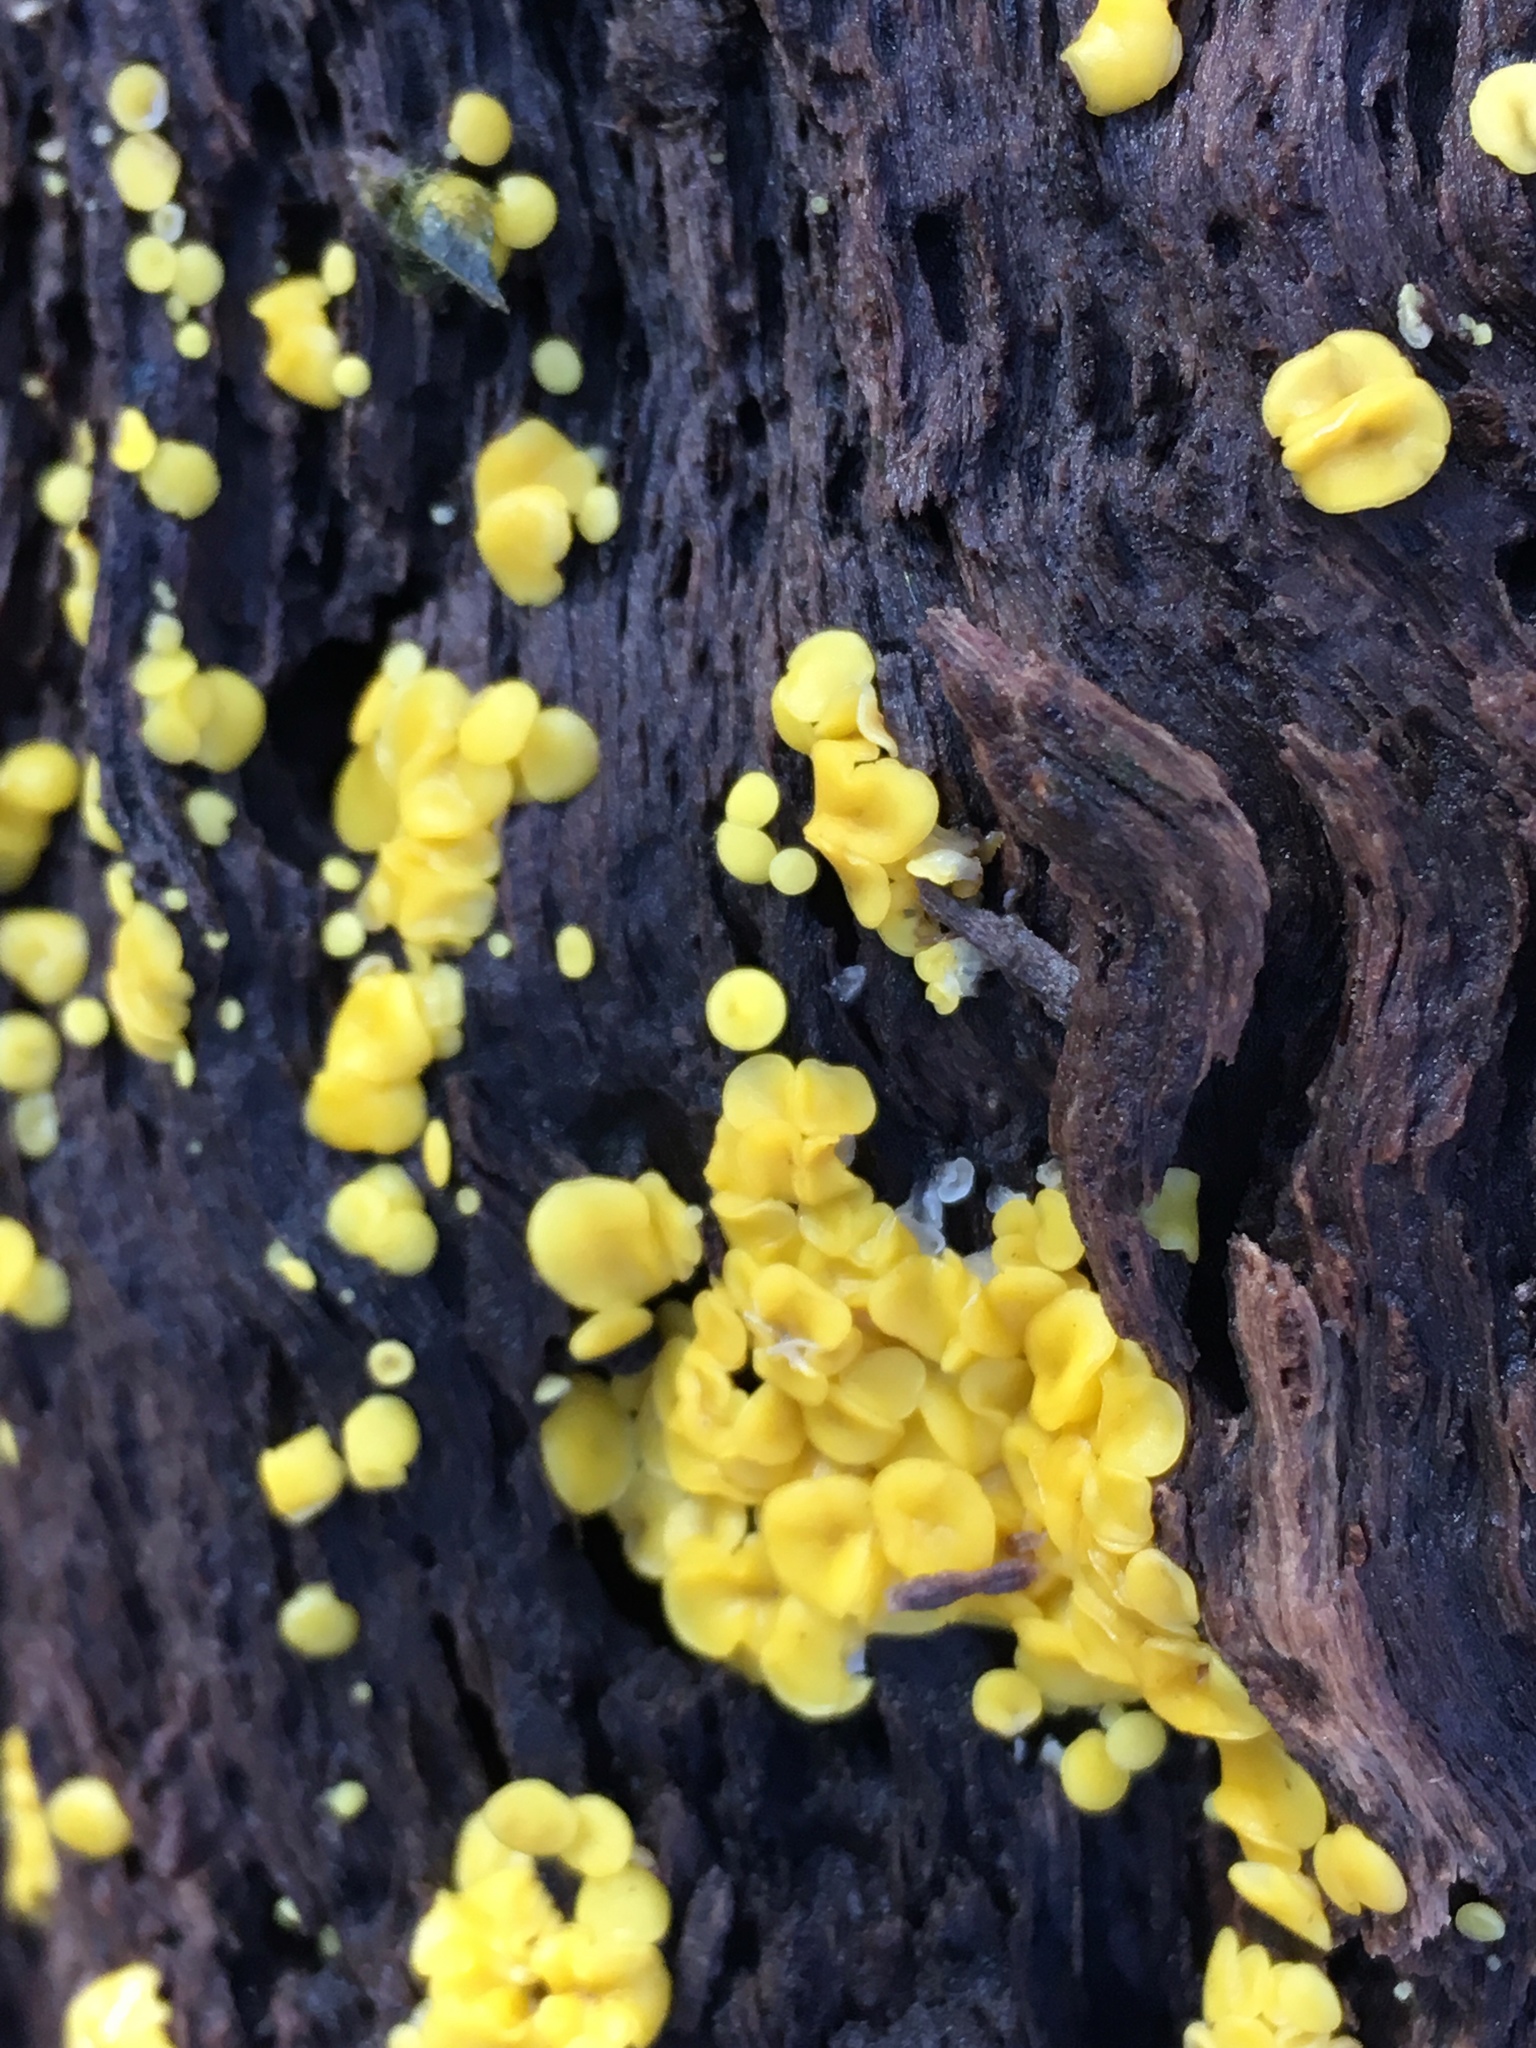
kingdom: Fungi
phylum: Ascomycota
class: Leotiomycetes
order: Helotiales
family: Pezizellaceae
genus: Calycina
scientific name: Calycina citrina
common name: Yellow fairy cups
